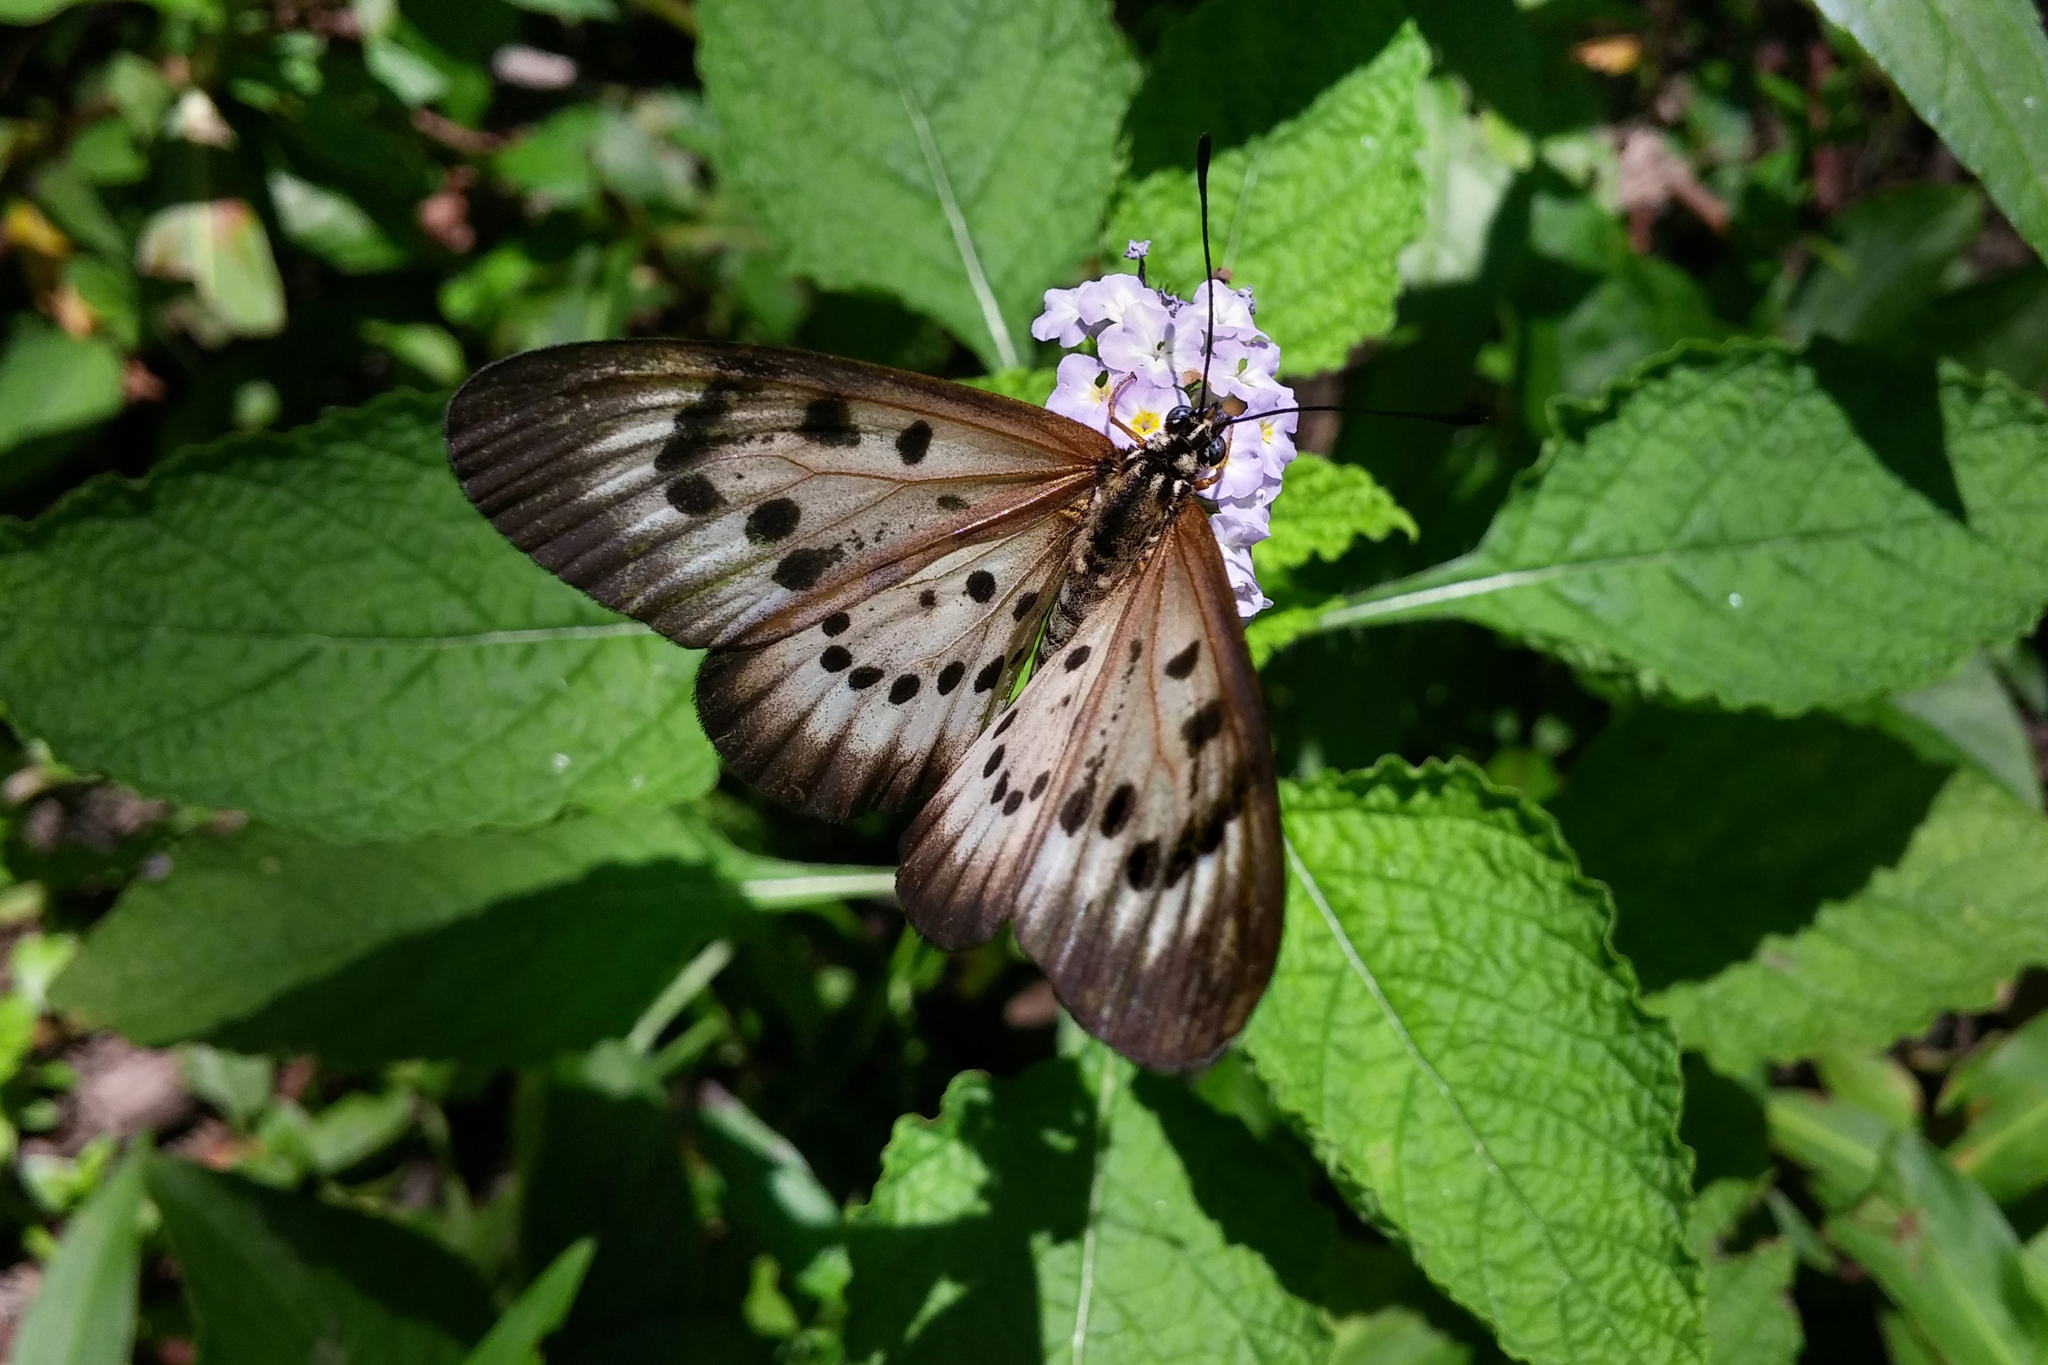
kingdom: Animalia
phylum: Arthropoda
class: Insecta
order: Lepidoptera
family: Nymphalidae
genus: Acraea
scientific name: Acraea
